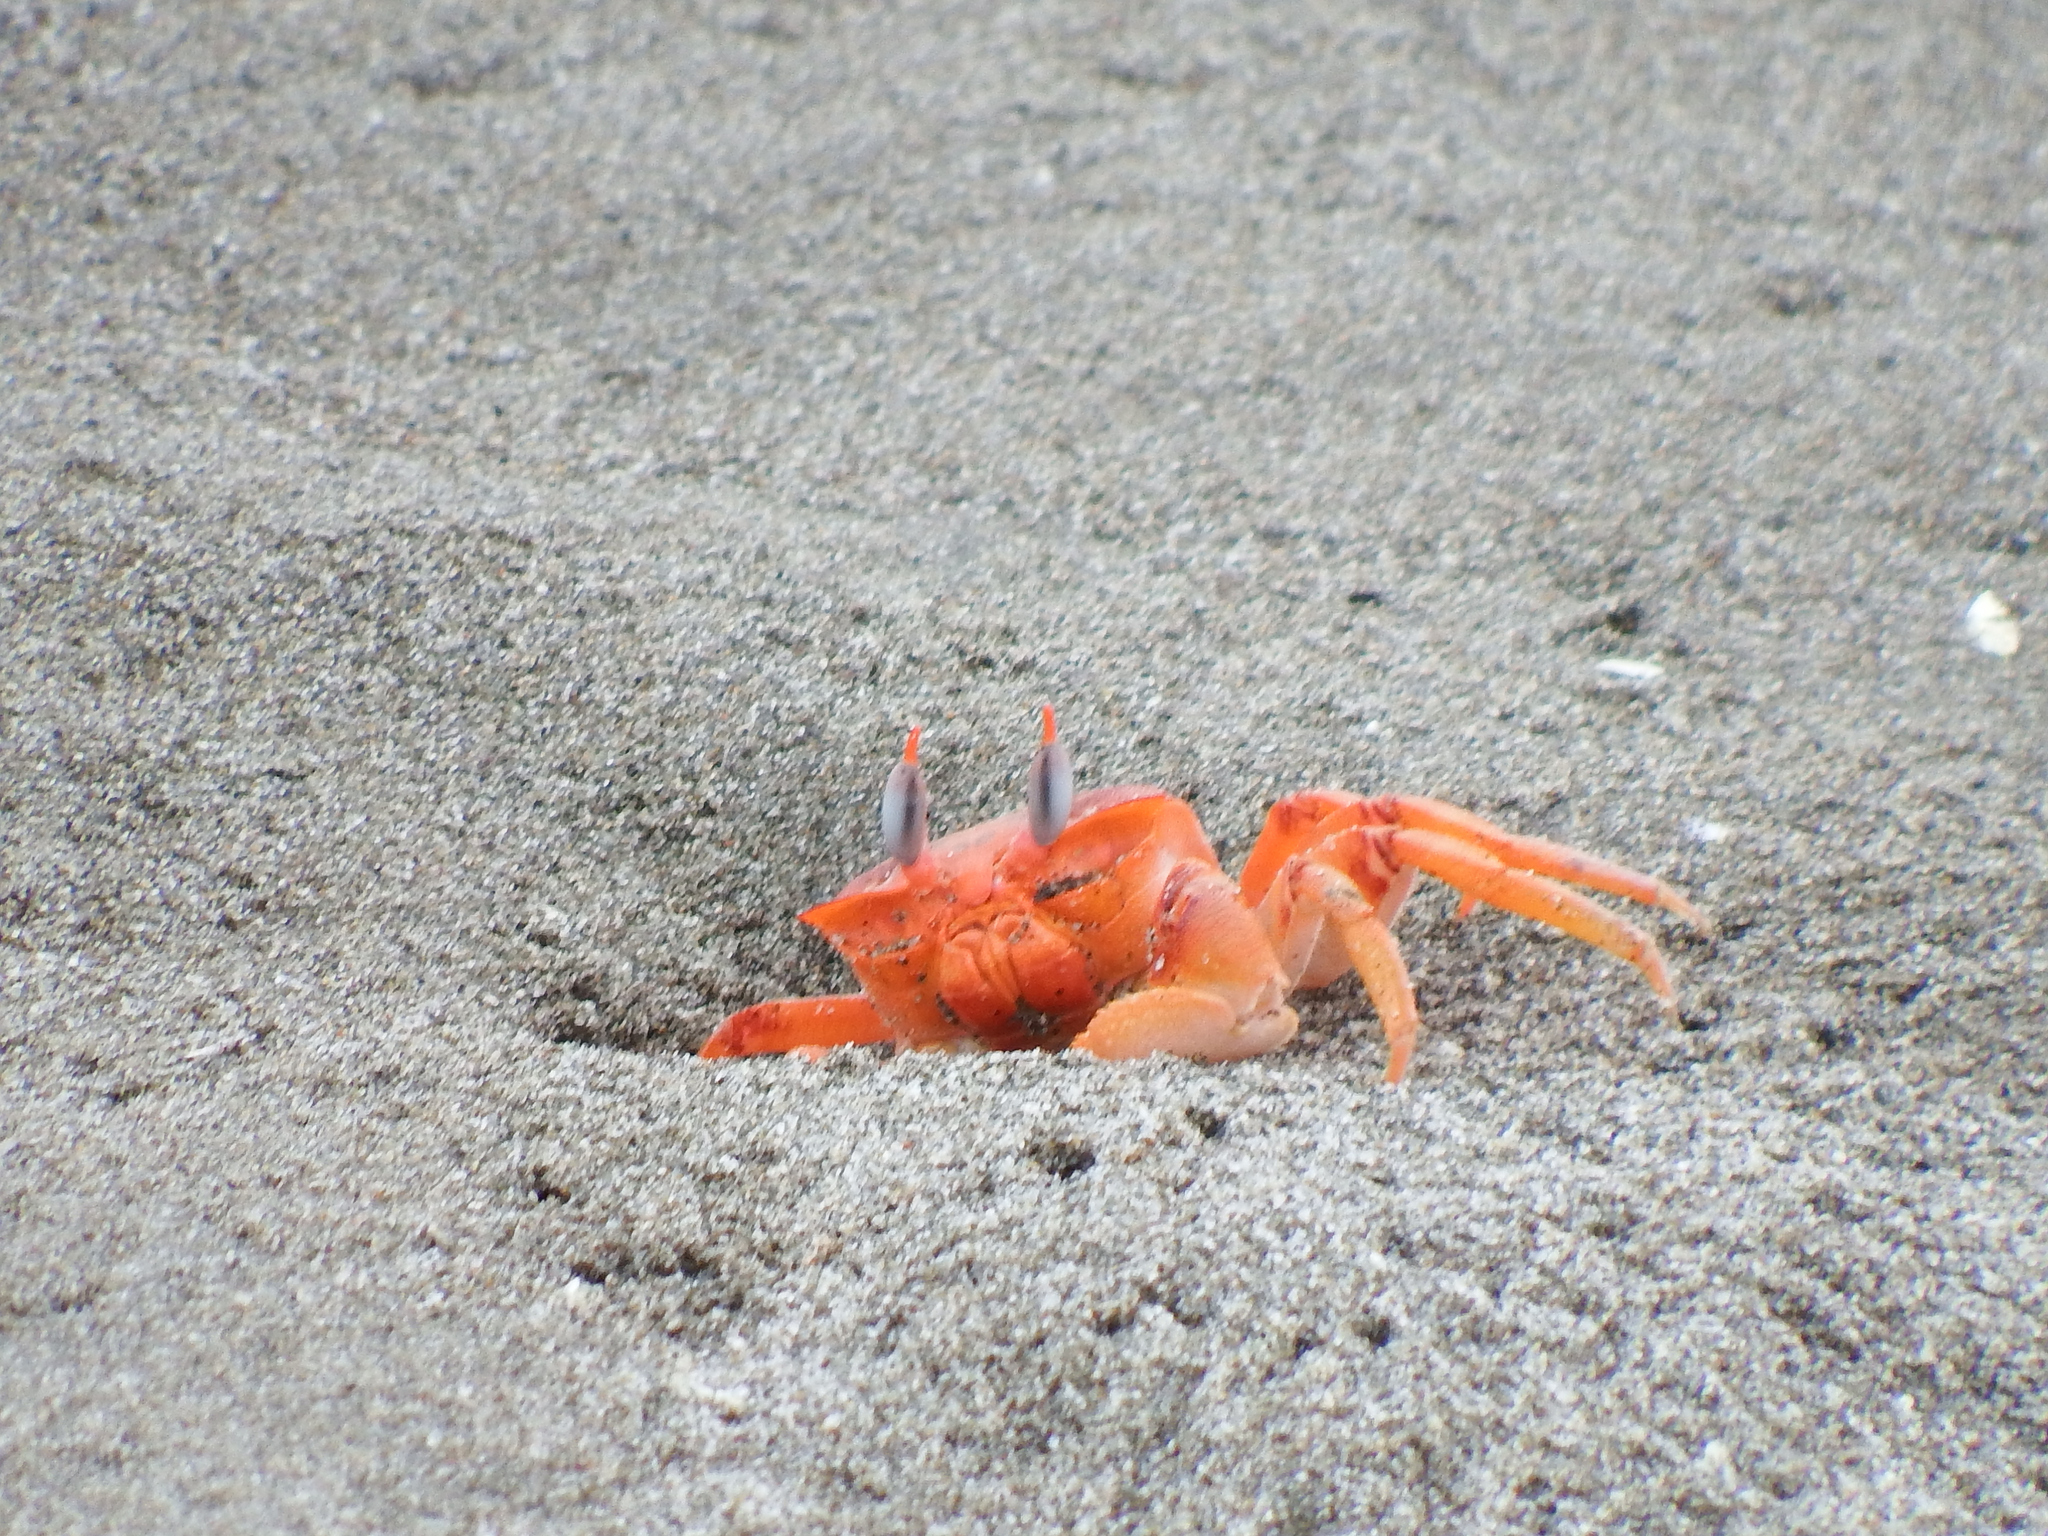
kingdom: Animalia
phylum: Arthropoda
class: Malacostraca
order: Decapoda
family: Ocypodidae
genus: Ocypode
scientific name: Ocypode gaudichaudii
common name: Pacific ghost crab
